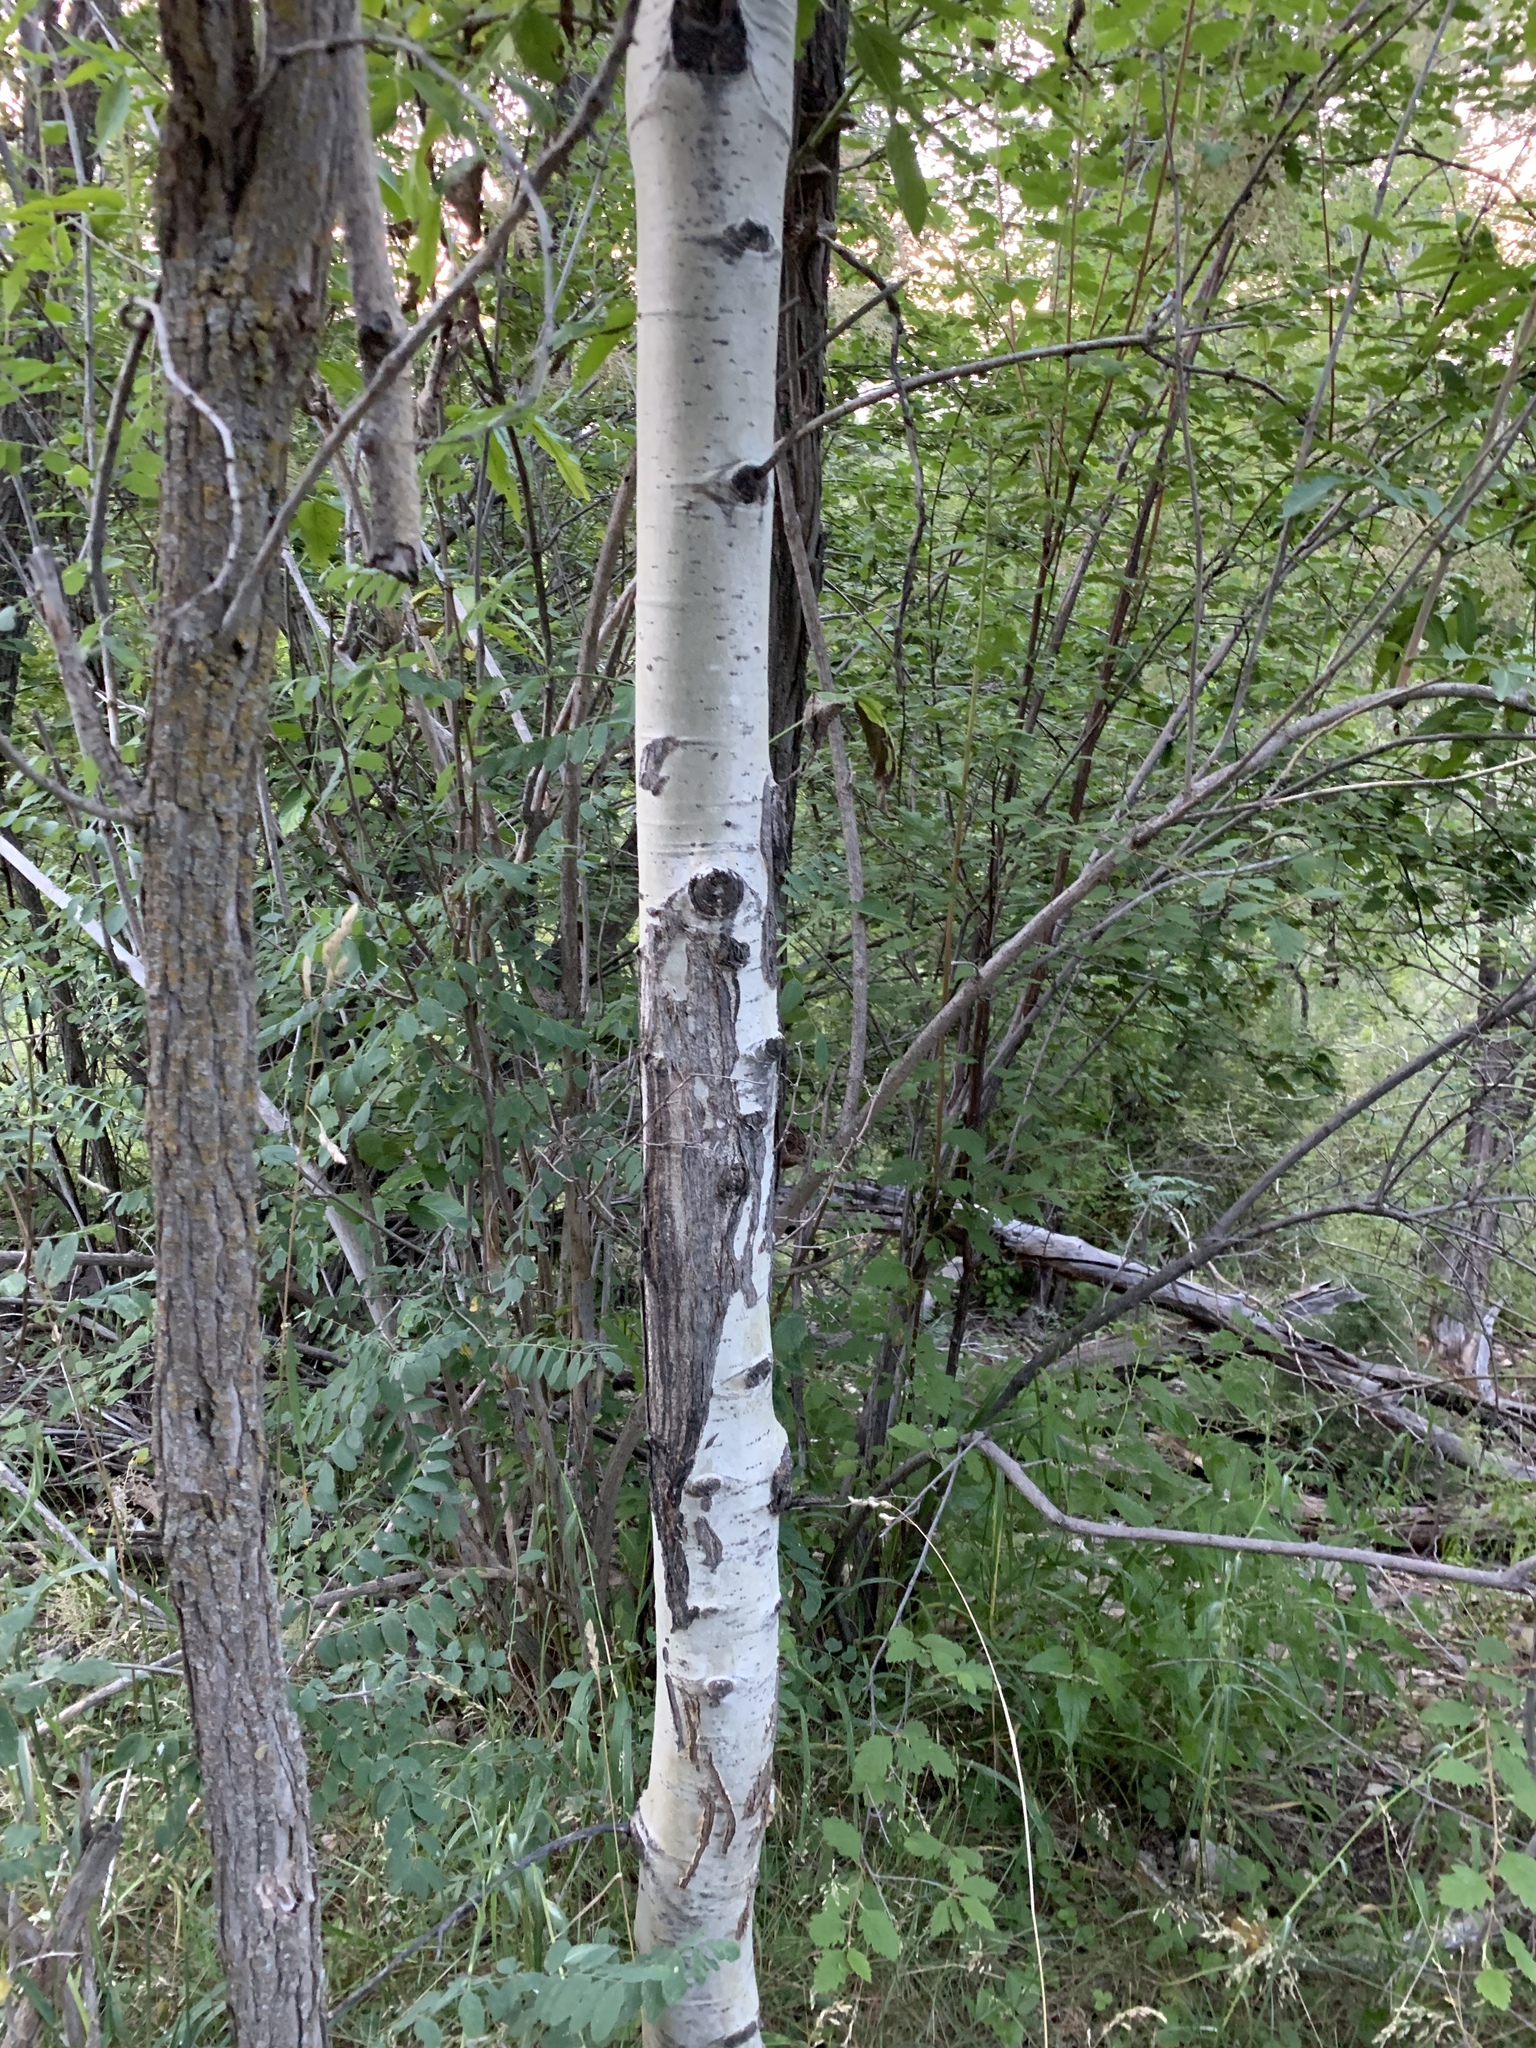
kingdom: Plantae
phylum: Tracheophyta
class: Magnoliopsida
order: Malpighiales
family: Salicaceae
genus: Populus
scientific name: Populus tremuloides
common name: Quaking aspen
